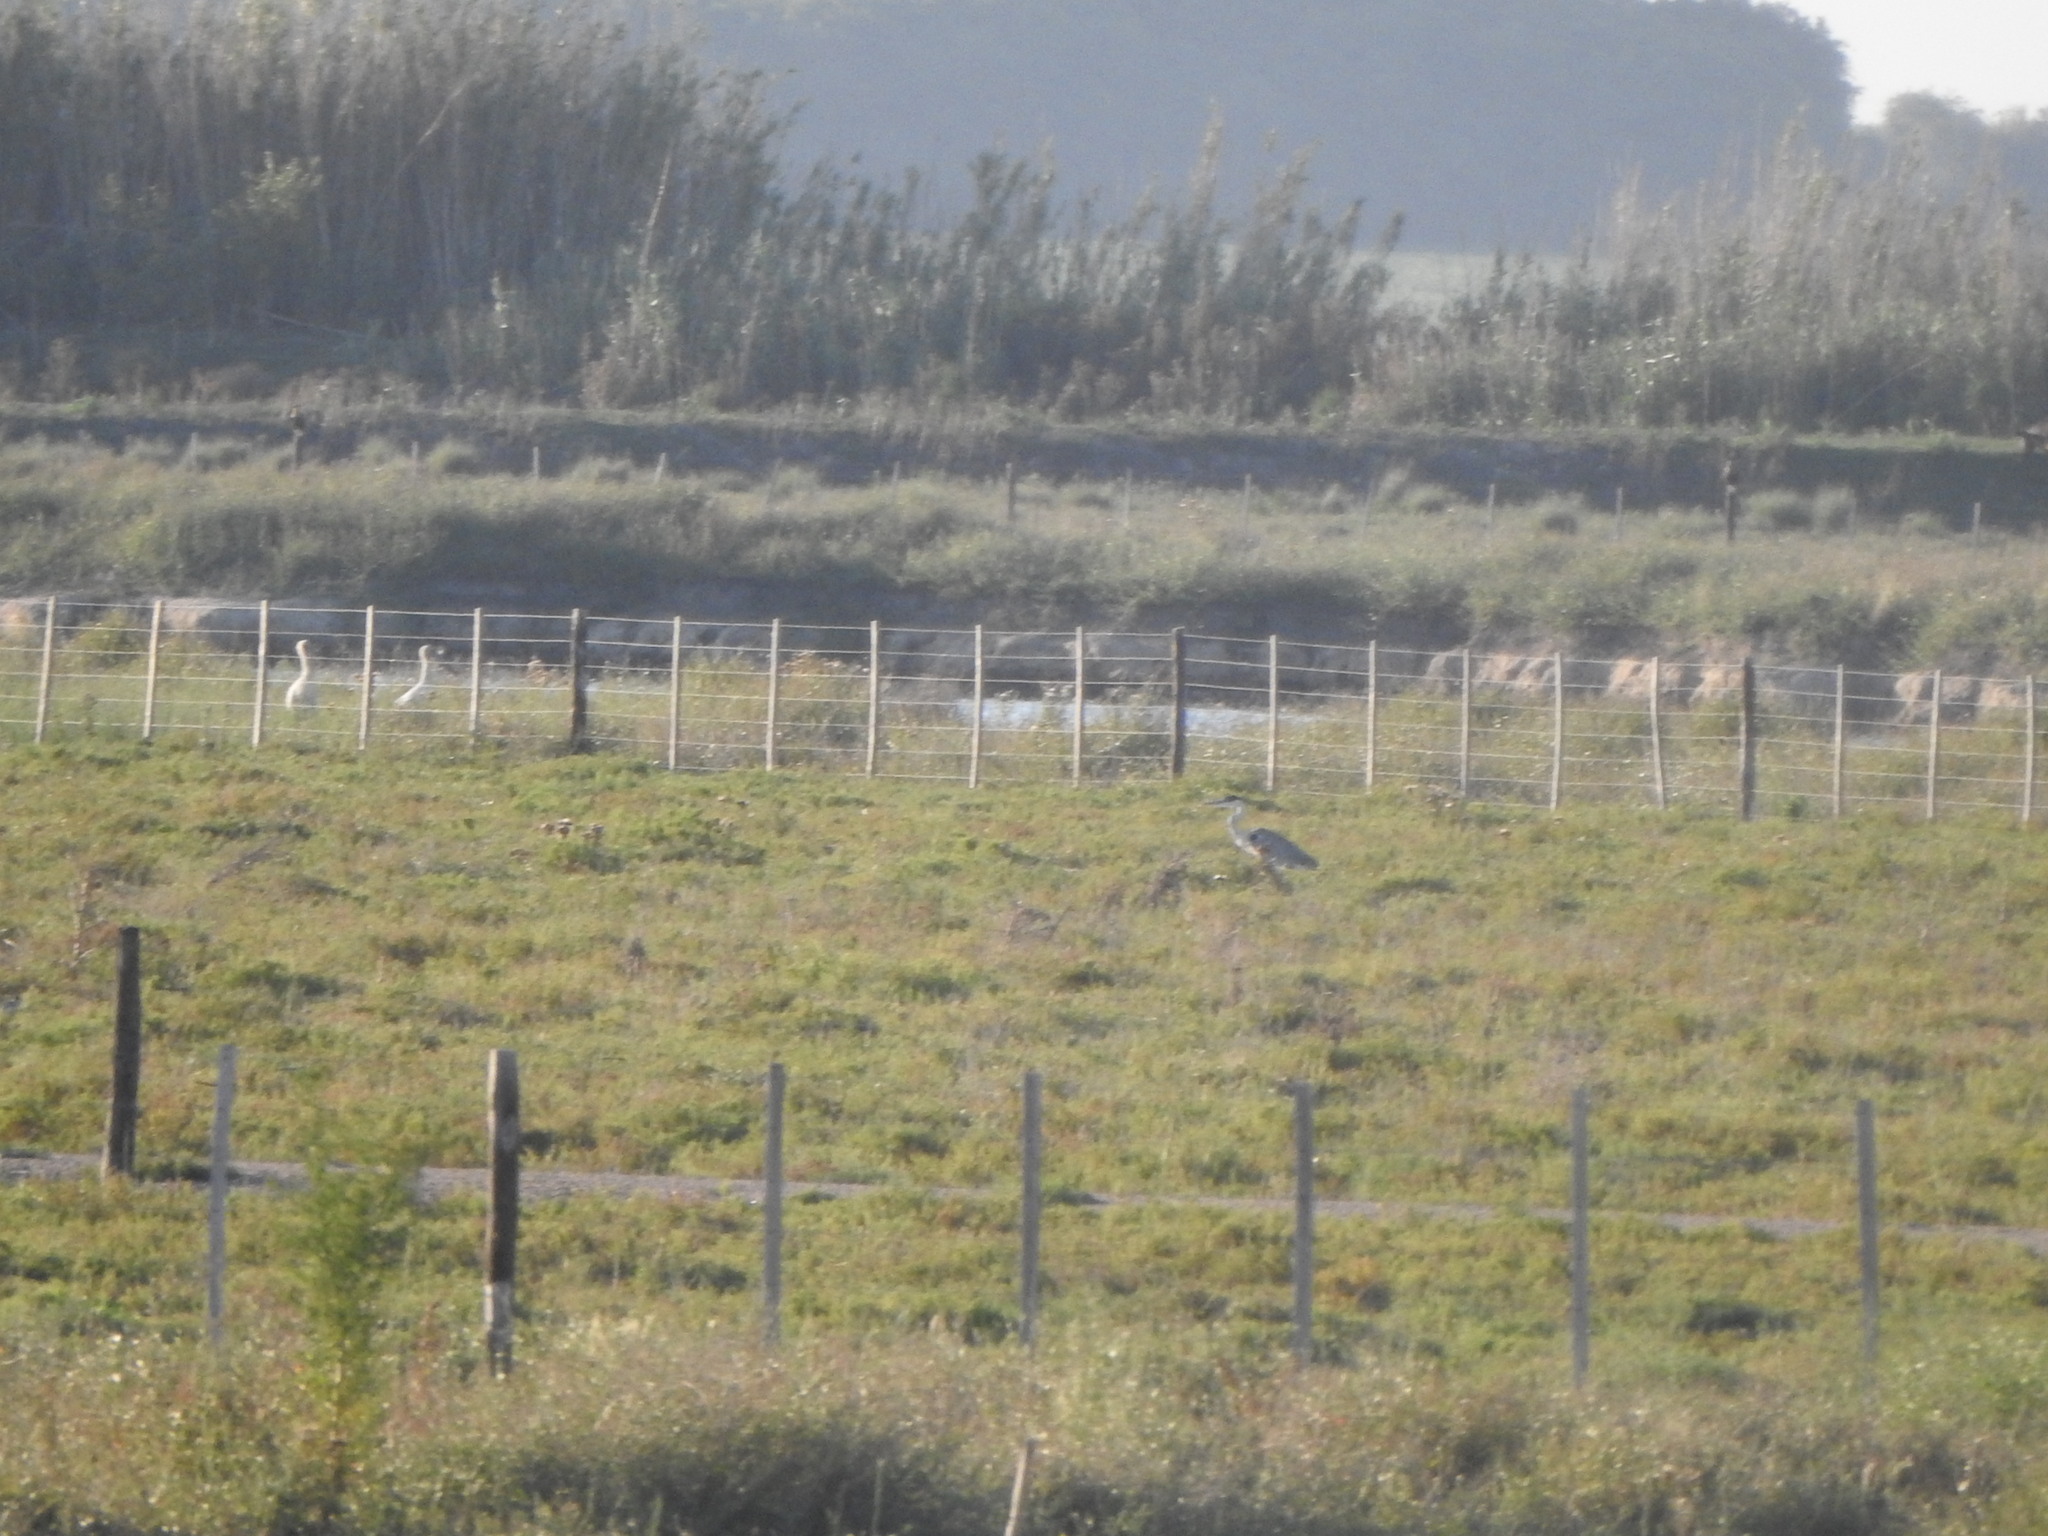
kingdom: Animalia
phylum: Chordata
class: Aves
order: Pelecaniformes
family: Ardeidae
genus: Ardea
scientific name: Ardea cocoi
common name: Cocoi heron
